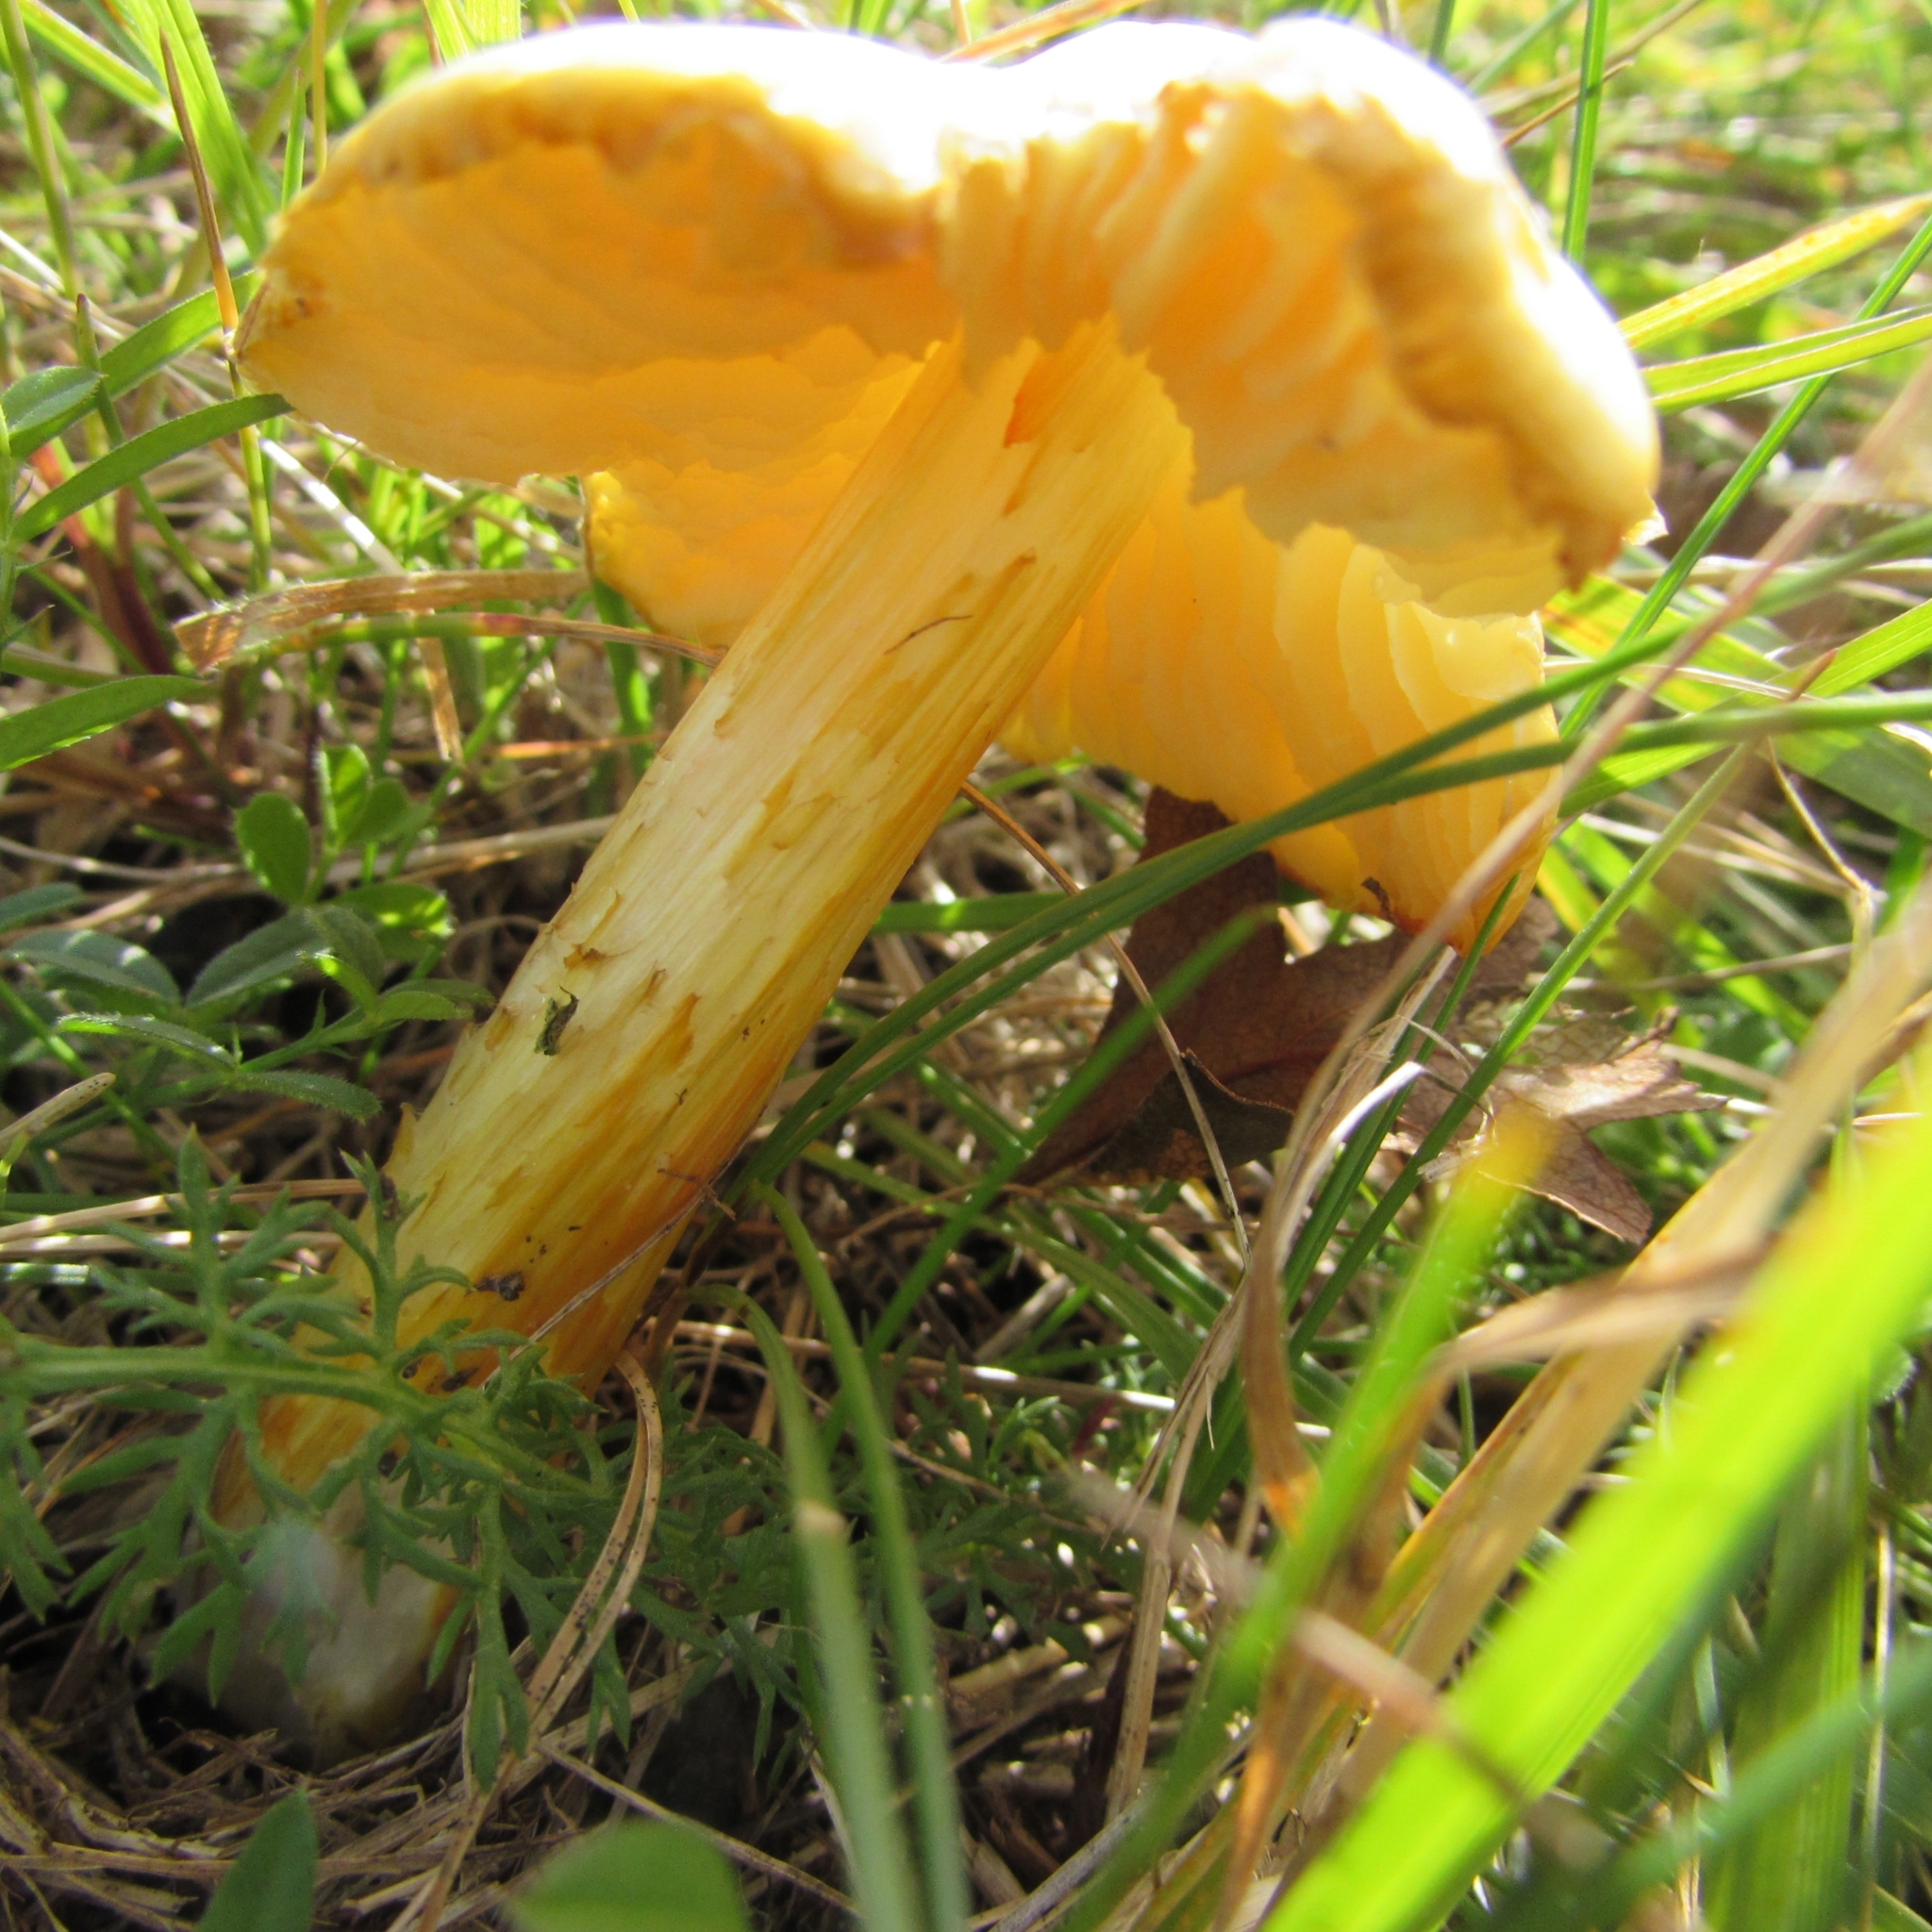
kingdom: Fungi
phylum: Basidiomycota
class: Agaricomycetes
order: Agaricales
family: Hygrophoraceae
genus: Hygrocybe
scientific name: Hygrocybe acutoconica
